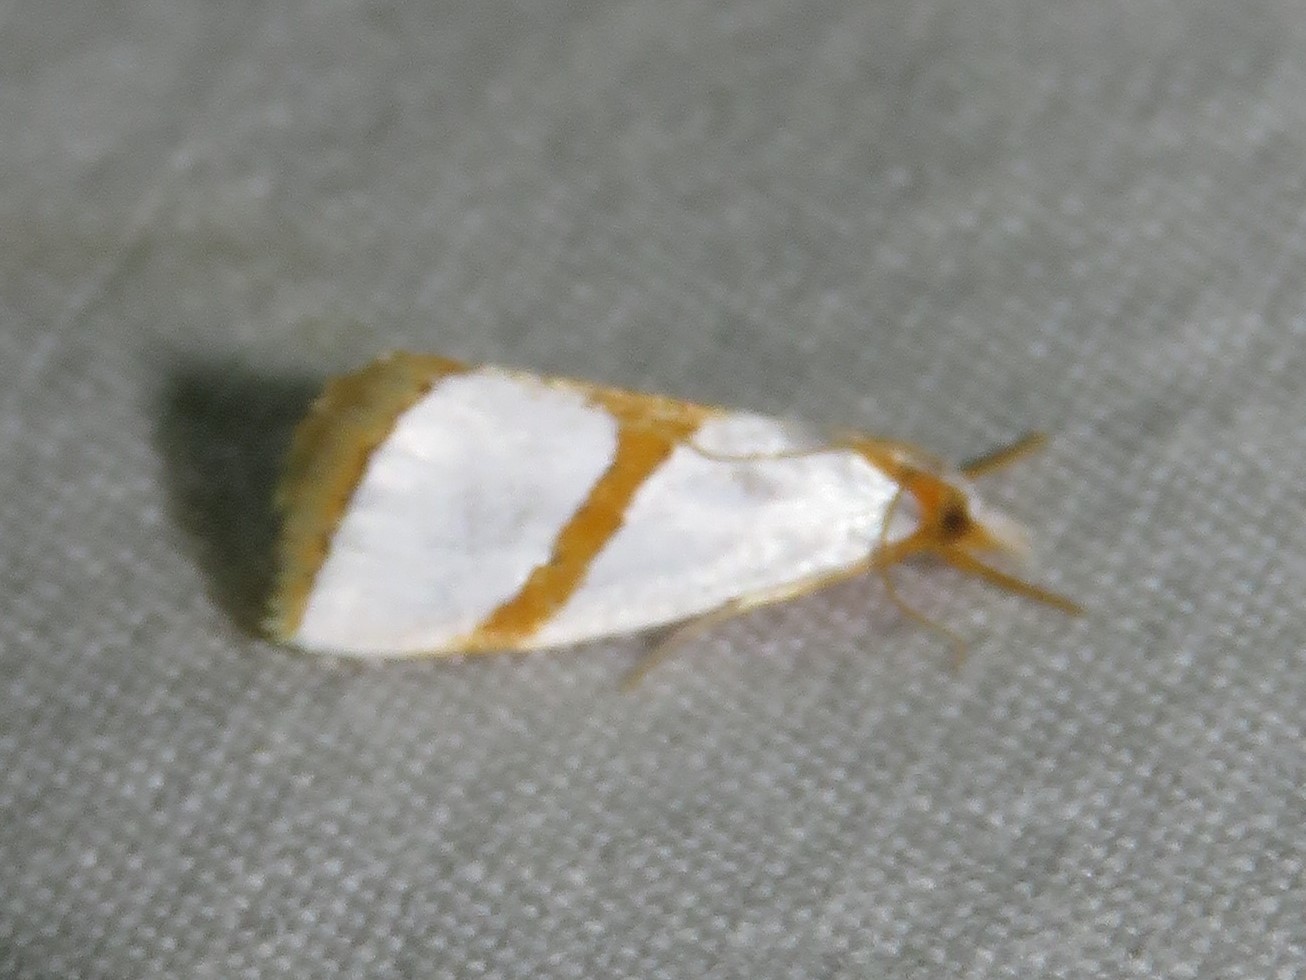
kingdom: Animalia
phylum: Arthropoda
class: Insecta
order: Lepidoptera
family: Crambidae
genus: Vaxi
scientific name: Vaxi critica
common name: Straight-lined vaxi moth
